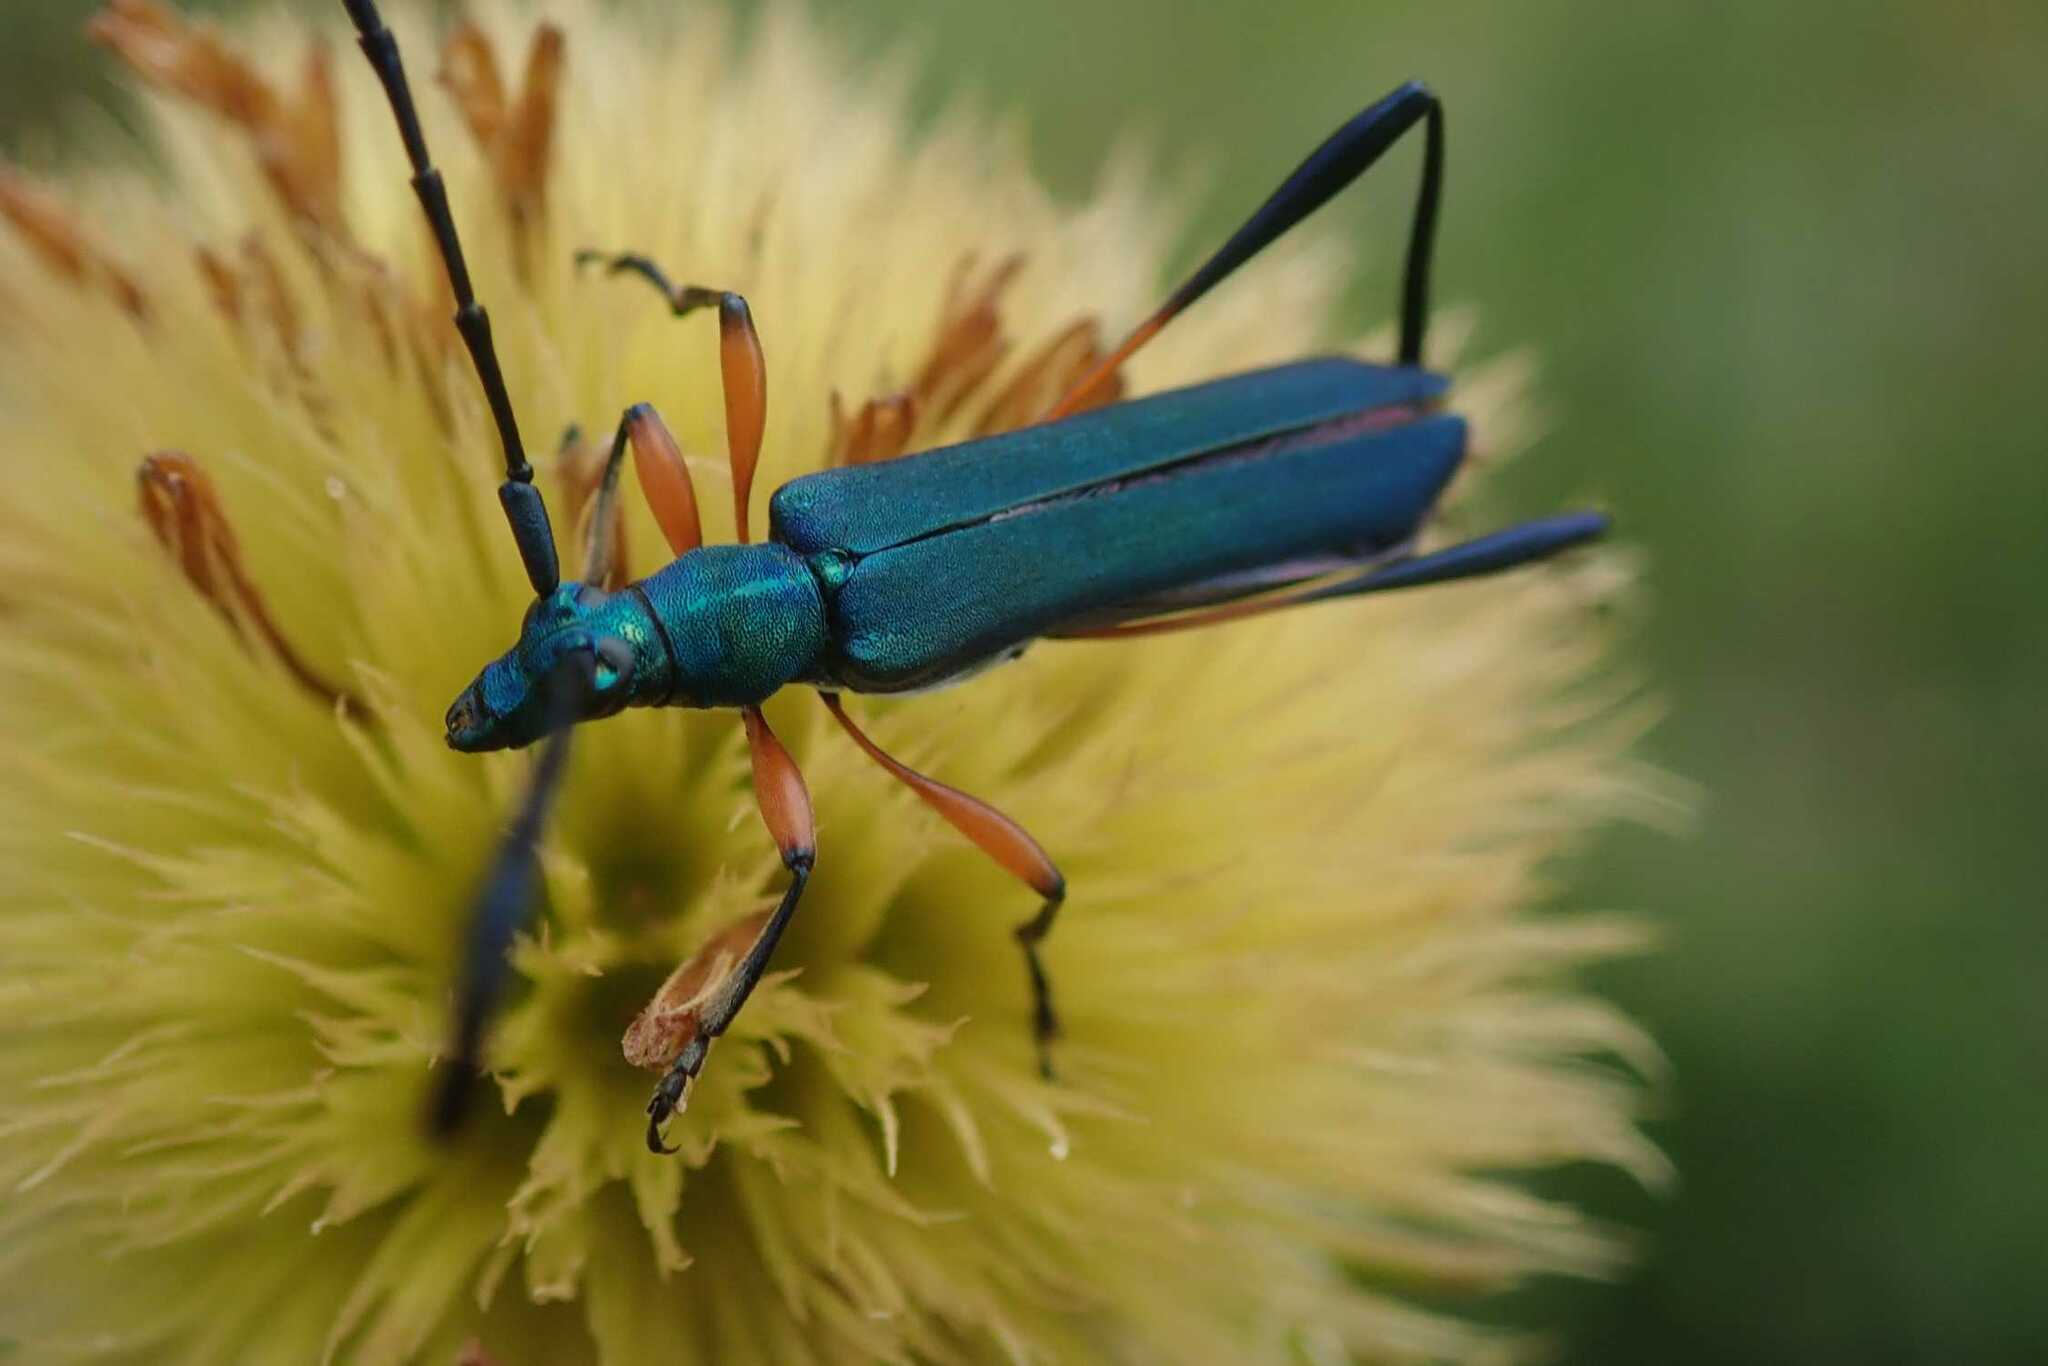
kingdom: Animalia
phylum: Arthropoda
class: Insecta
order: Coleoptera
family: Cerambycidae
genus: Homaloceraea
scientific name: Homaloceraea manicatus
